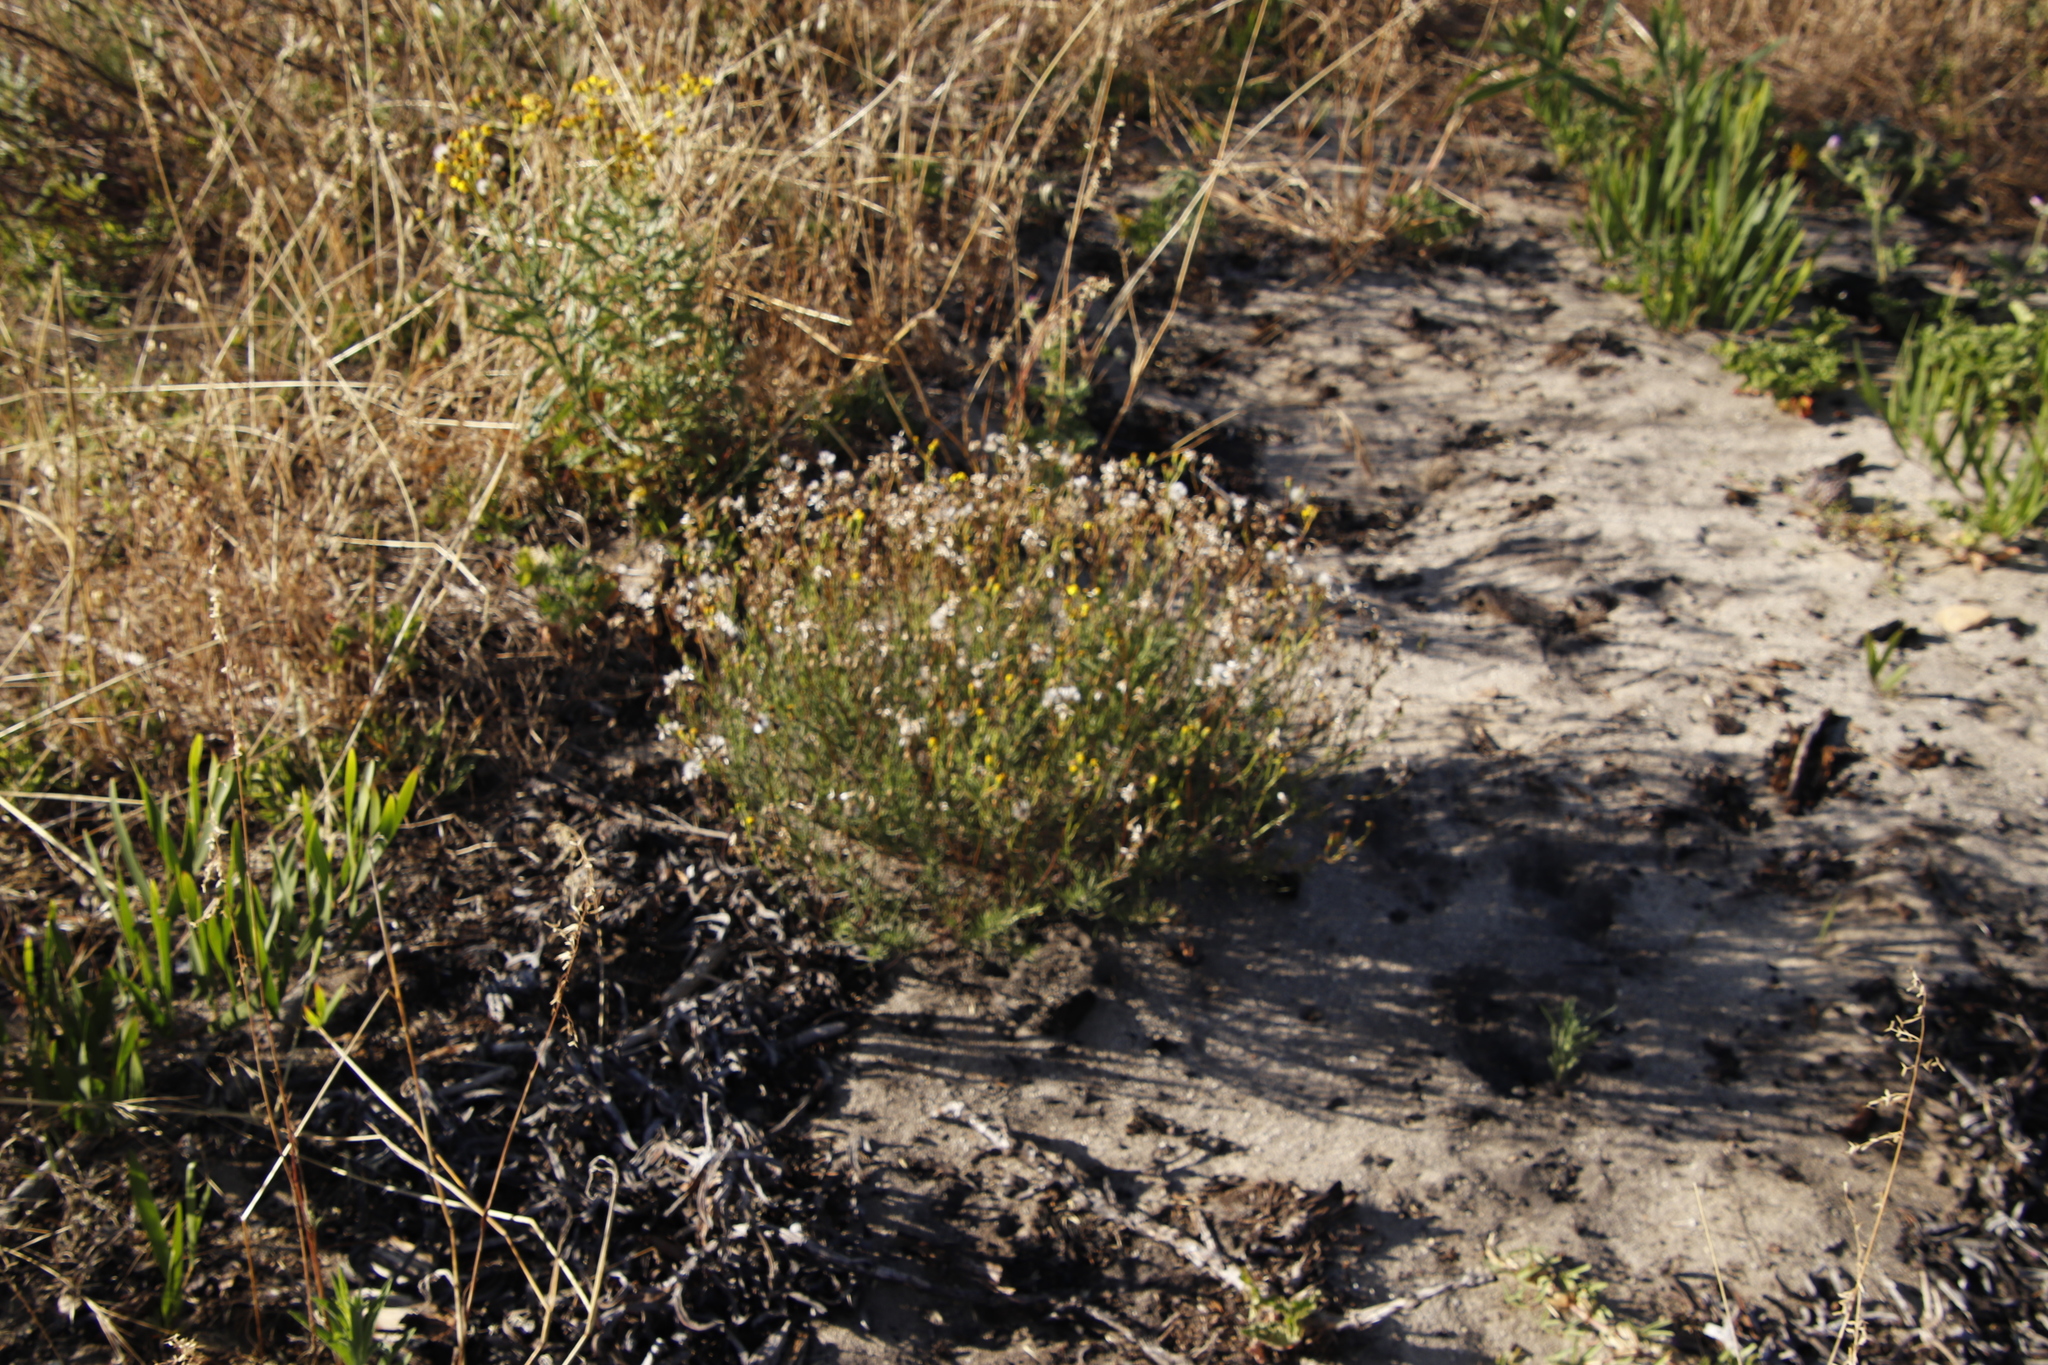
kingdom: Plantae
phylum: Tracheophyta
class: Magnoliopsida
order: Asterales
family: Asteraceae
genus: Senecio
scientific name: Senecio burchellii
